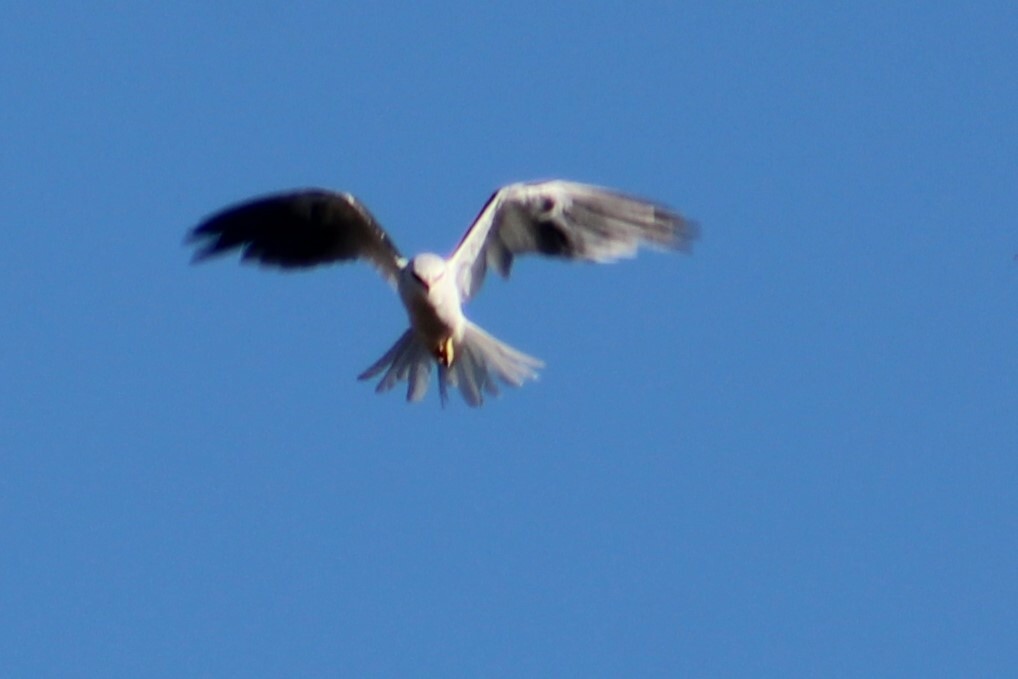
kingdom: Animalia
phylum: Chordata
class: Aves
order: Accipitriformes
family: Accipitridae
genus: Elanus
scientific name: Elanus leucurus
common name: White-tailed kite
